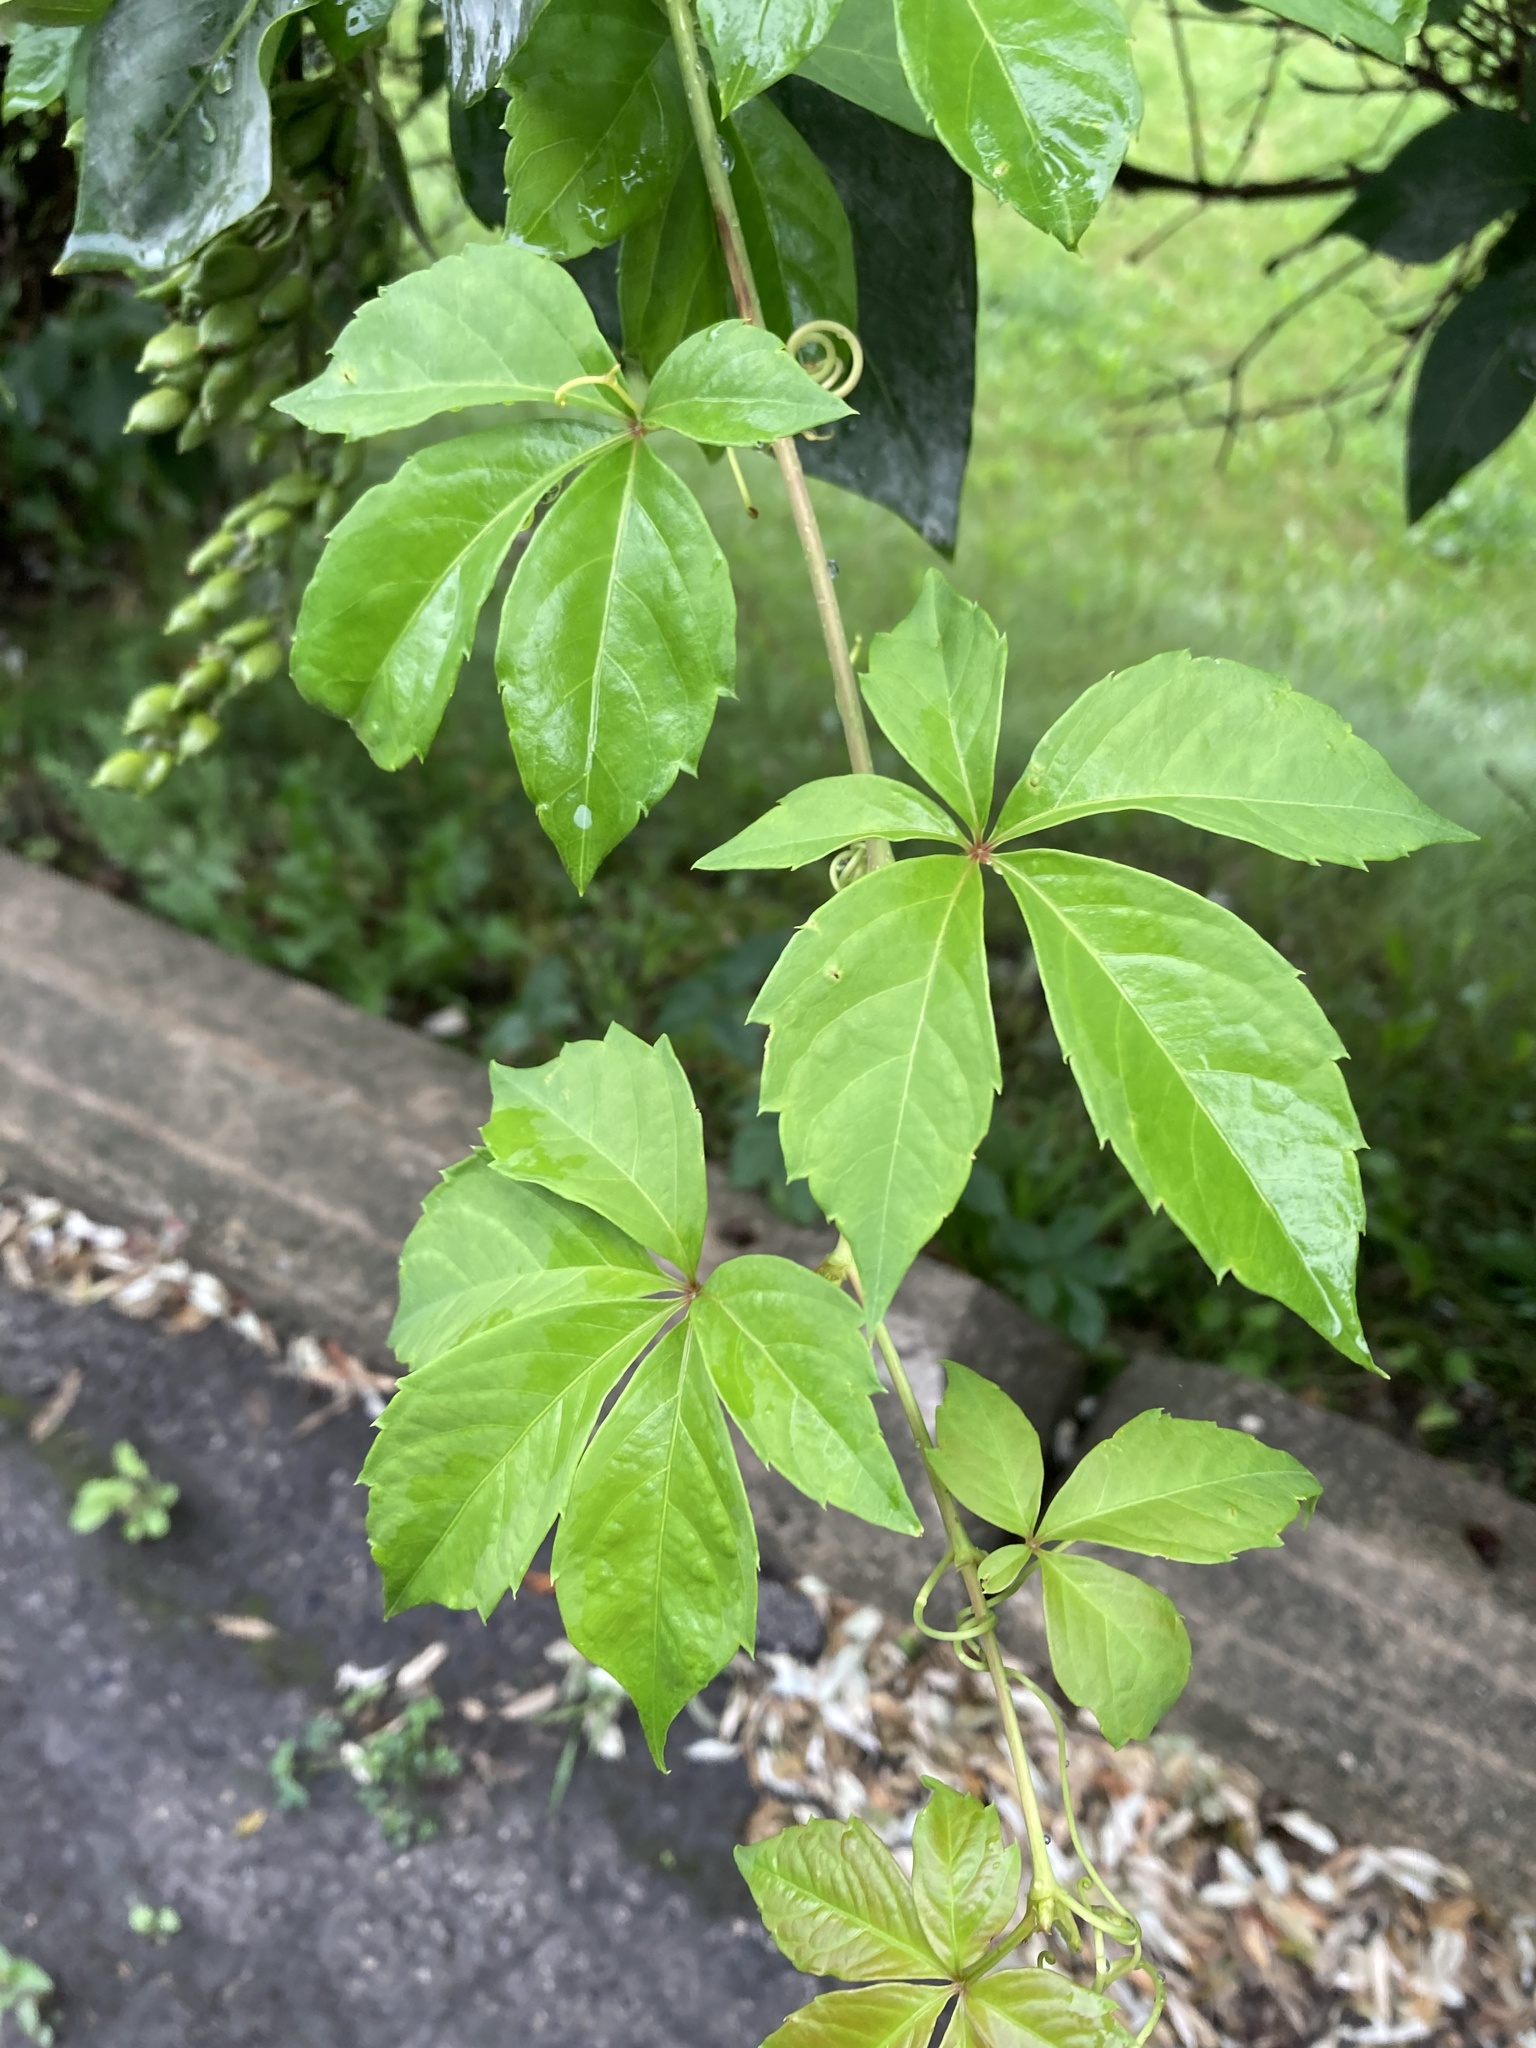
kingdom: Plantae
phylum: Tracheophyta
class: Magnoliopsida
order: Vitales
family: Vitaceae
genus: Parthenocissus
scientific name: Parthenocissus quinquefolia
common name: Virginia-creeper
